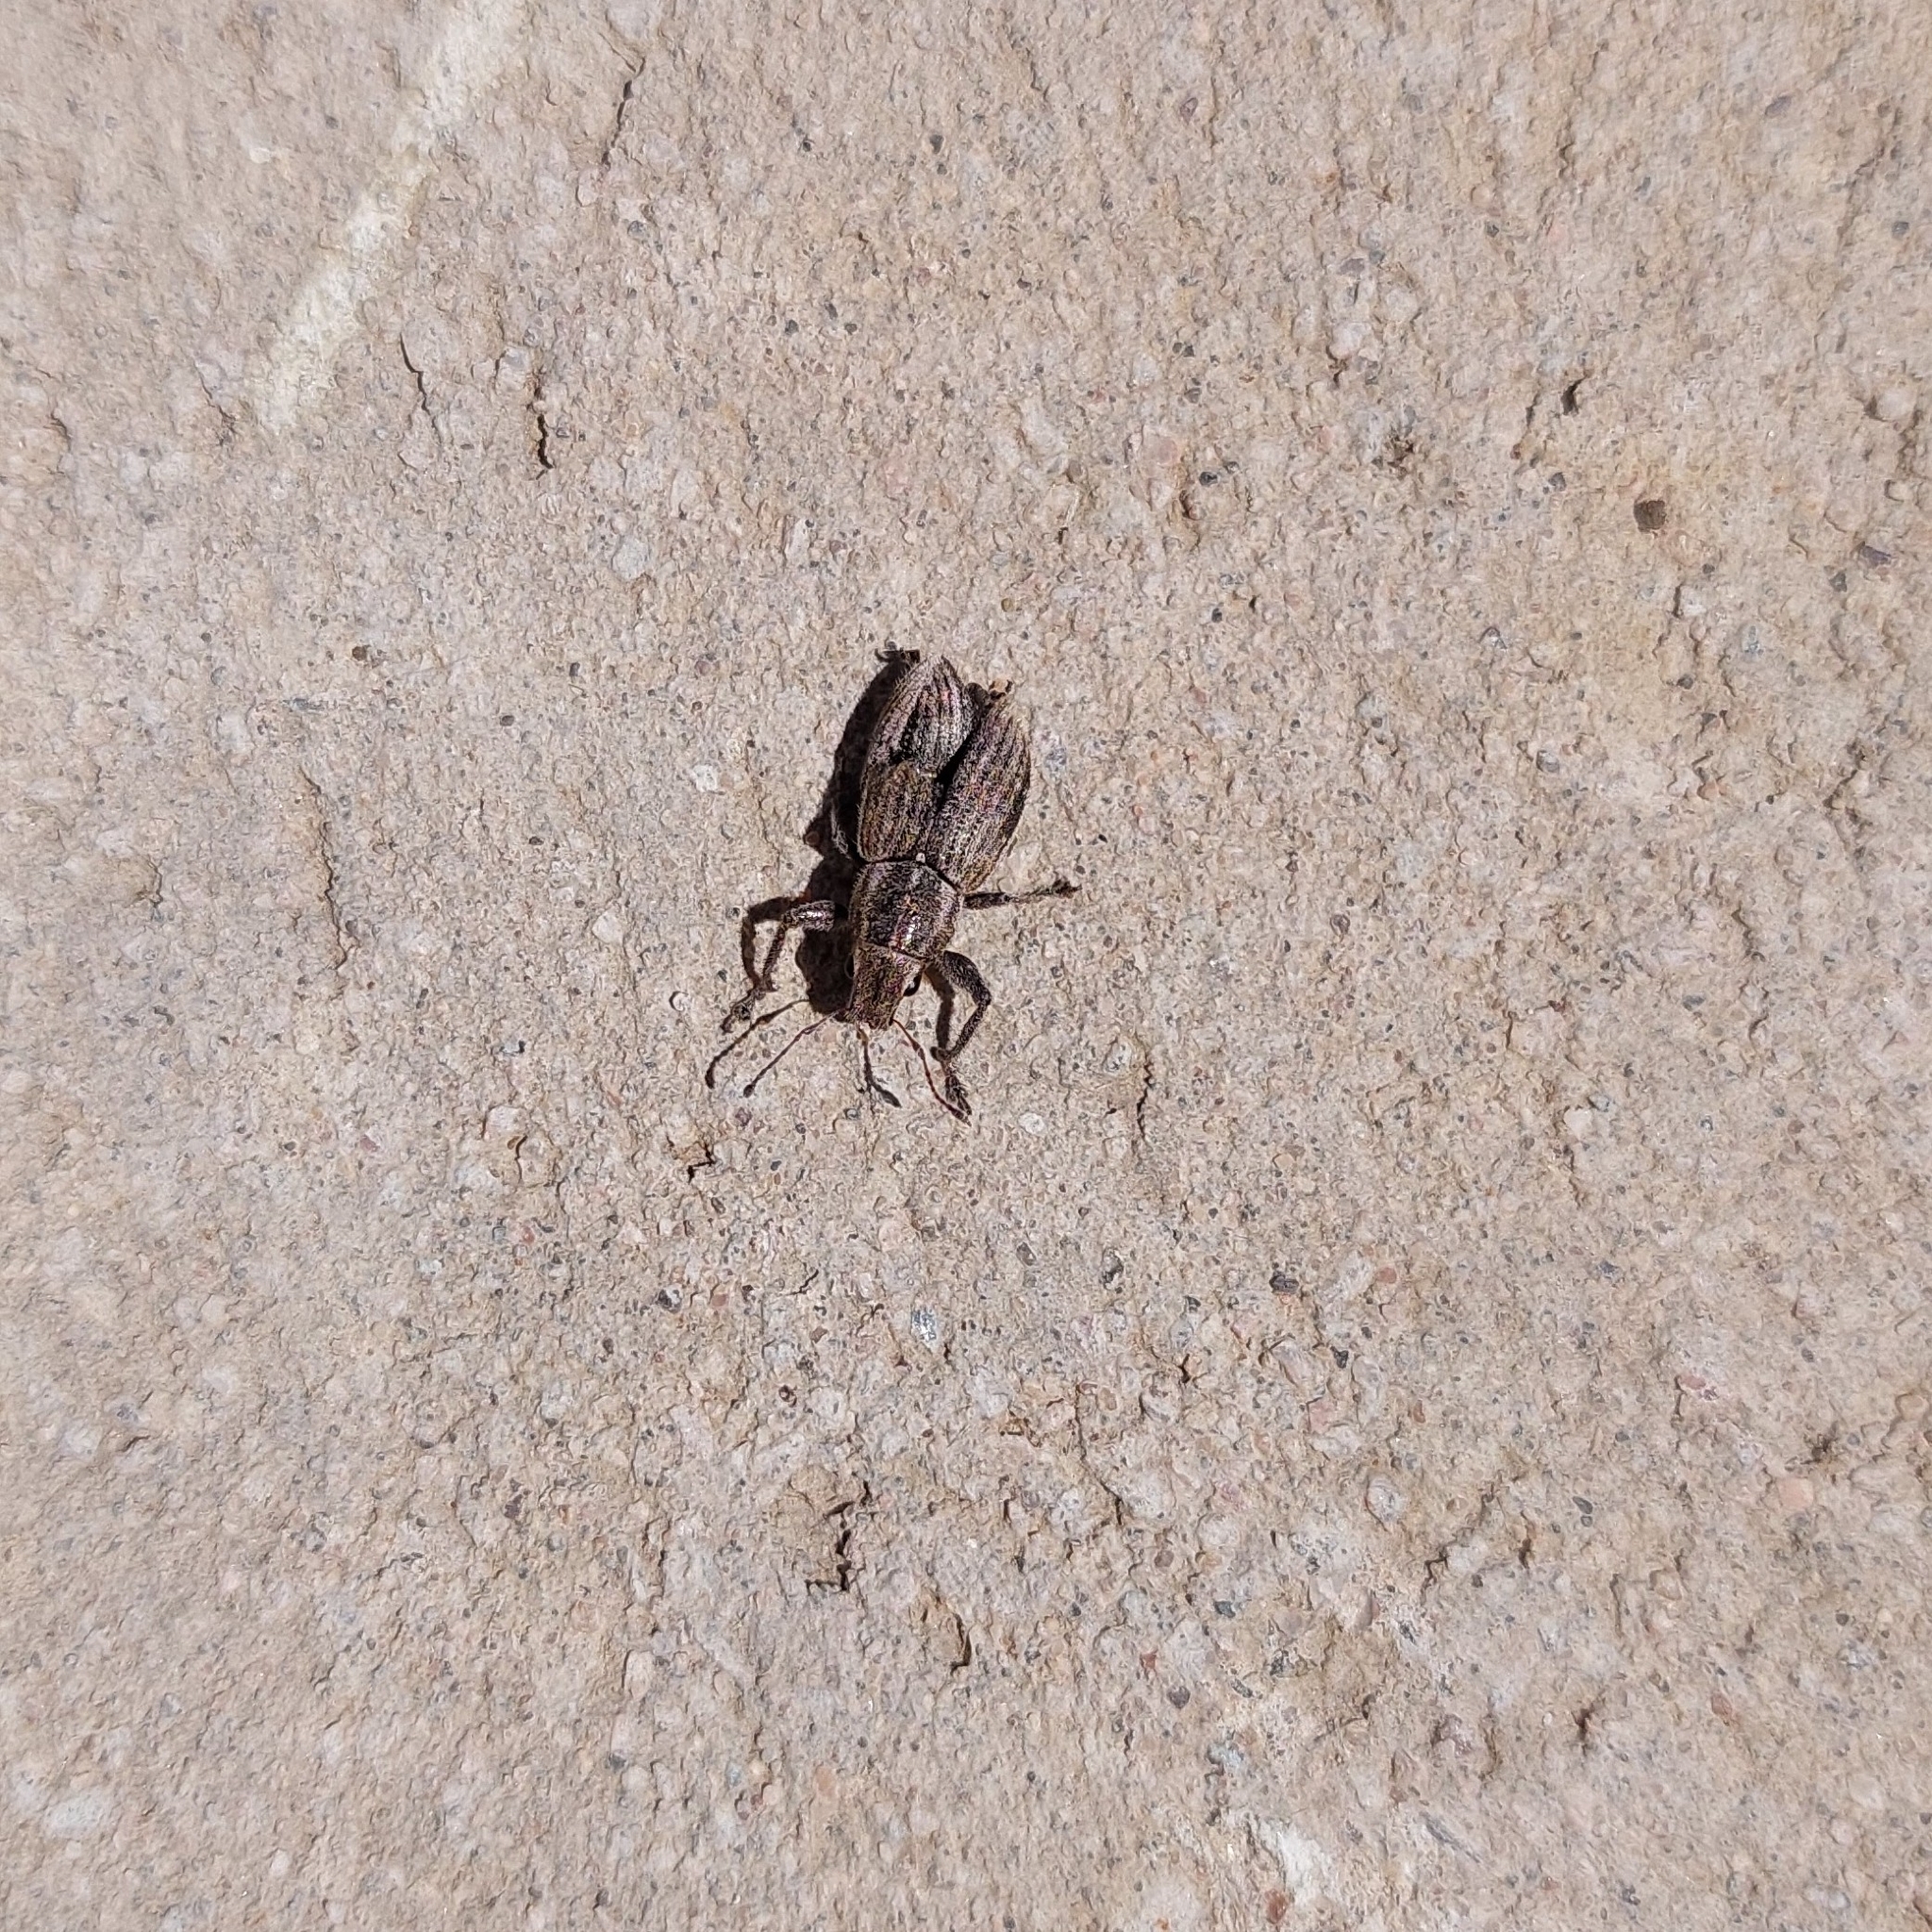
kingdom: Animalia
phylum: Arthropoda
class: Insecta
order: Coleoptera
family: Curculionidae
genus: Naupactus
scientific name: Naupactus leucoloma
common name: Whitefringed beetle
